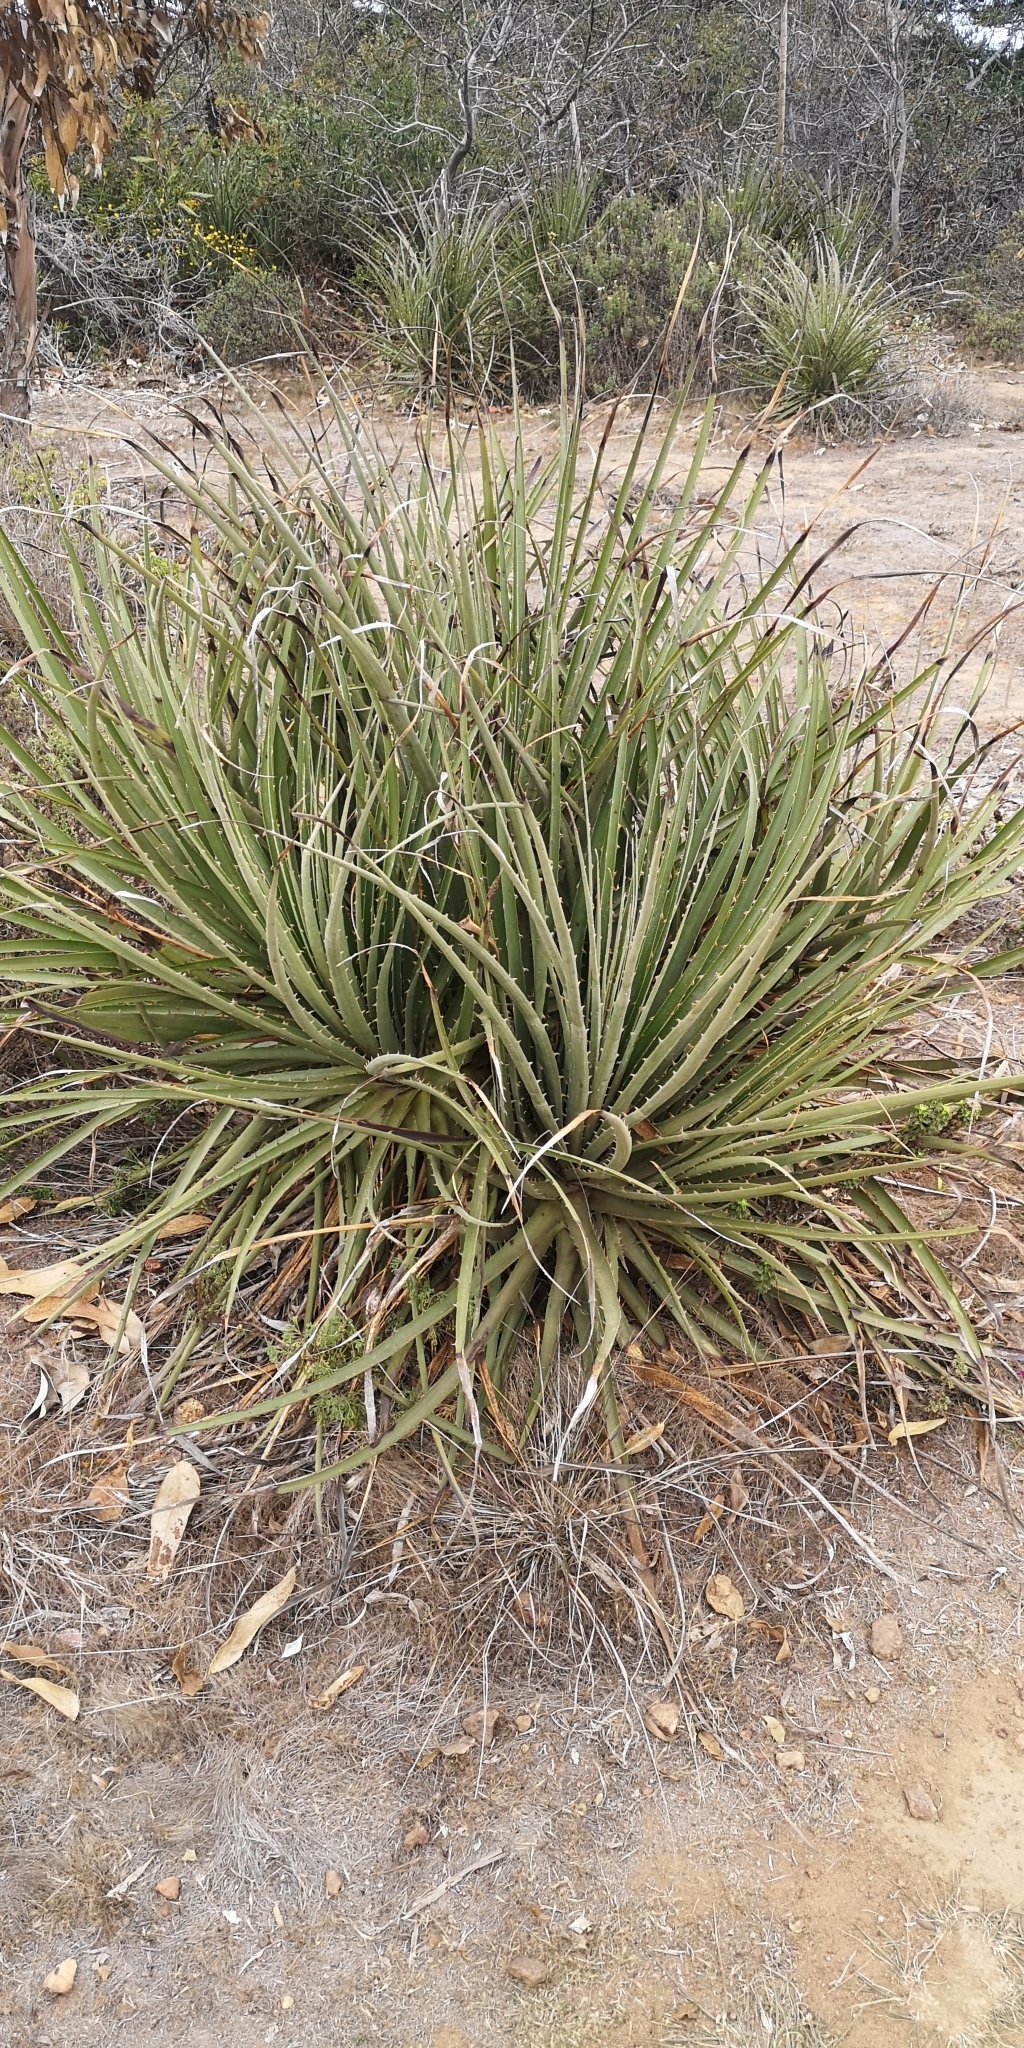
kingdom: Plantae
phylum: Tracheophyta
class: Liliopsida
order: Poales
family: Bromeliaceae
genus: Puya
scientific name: Puya chilensis
